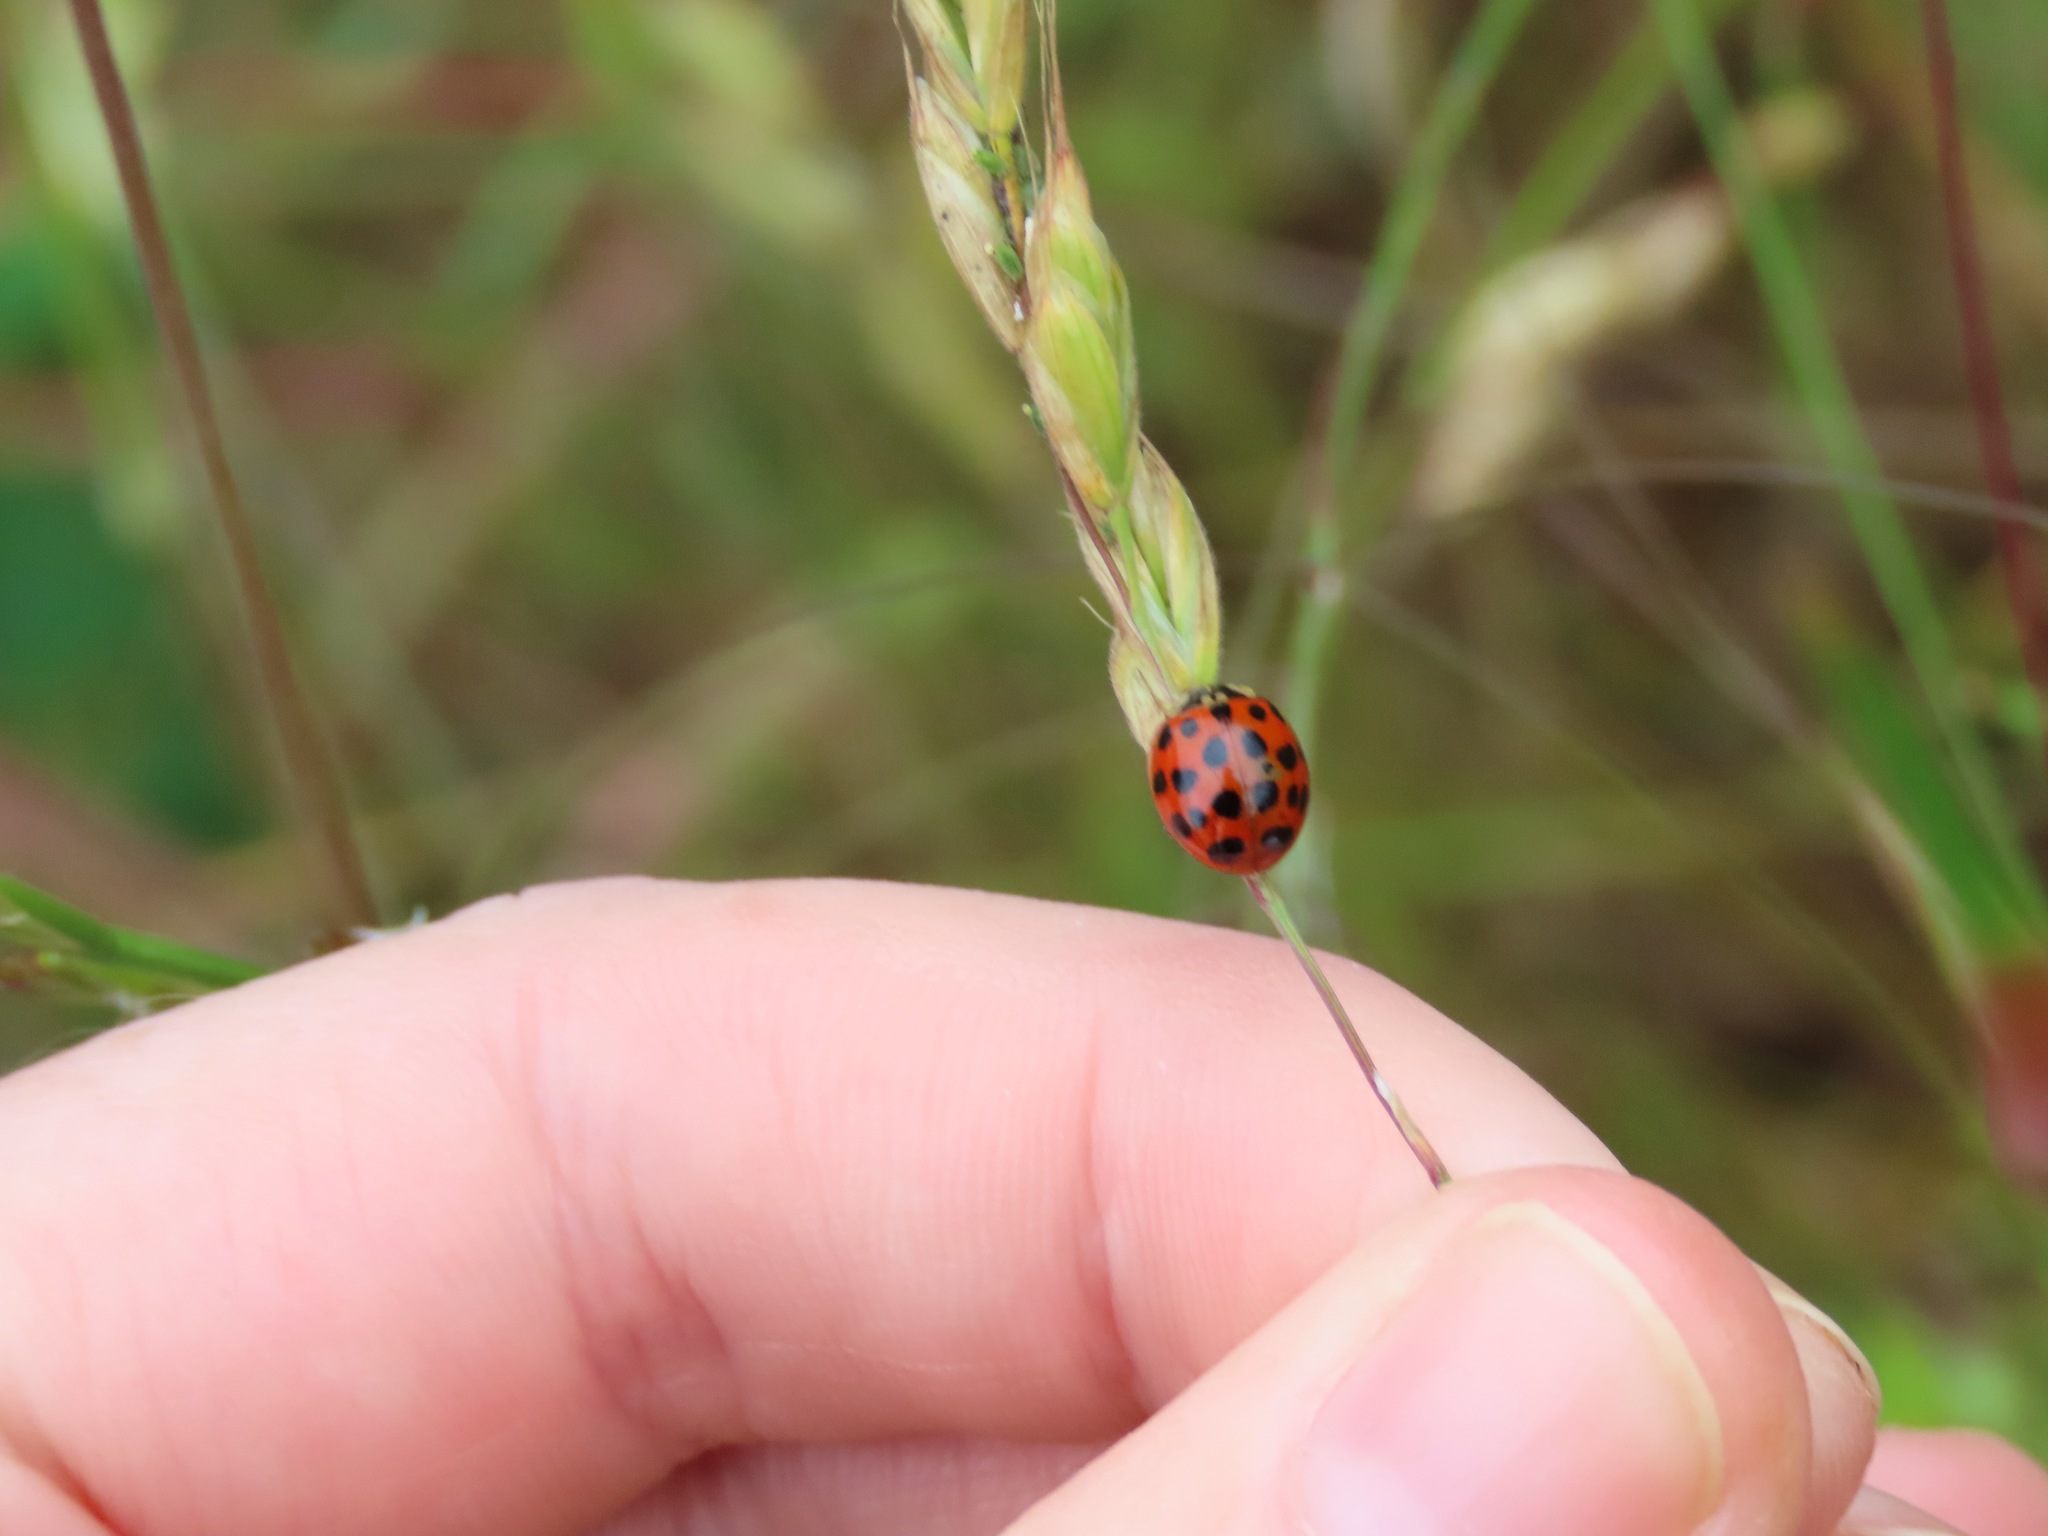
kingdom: Animalia
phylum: Arthropoda
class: Insecta
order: Coleoptera
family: Coccinellidae
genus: Harmonia
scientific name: Harmonia axyridis
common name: Harlequin ladybird
